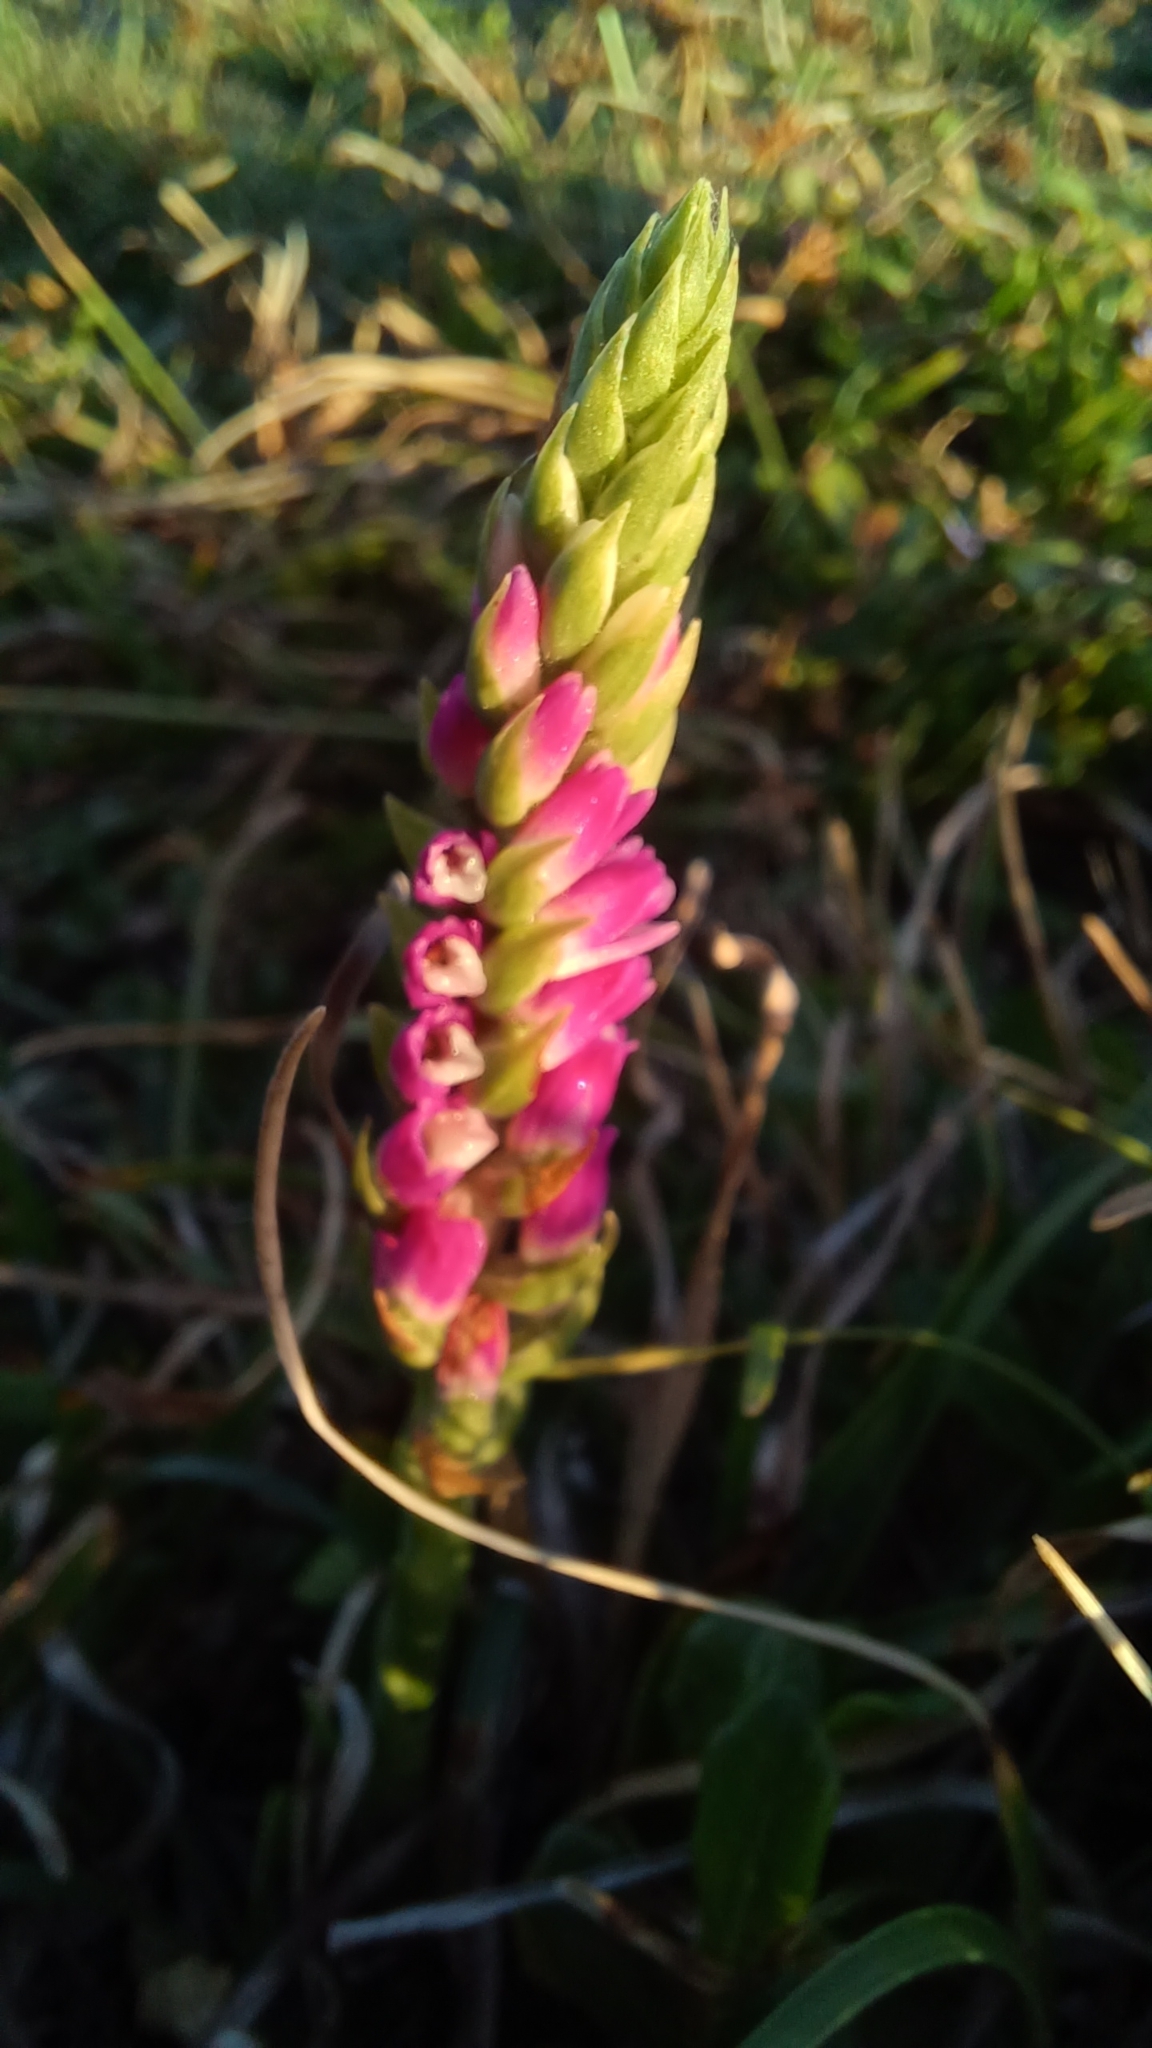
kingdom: Plantae
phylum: Tracheophyta
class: Liliopsida
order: Asparagales
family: Orchidaceae
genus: Spiranthes
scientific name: Spiranthes australis
